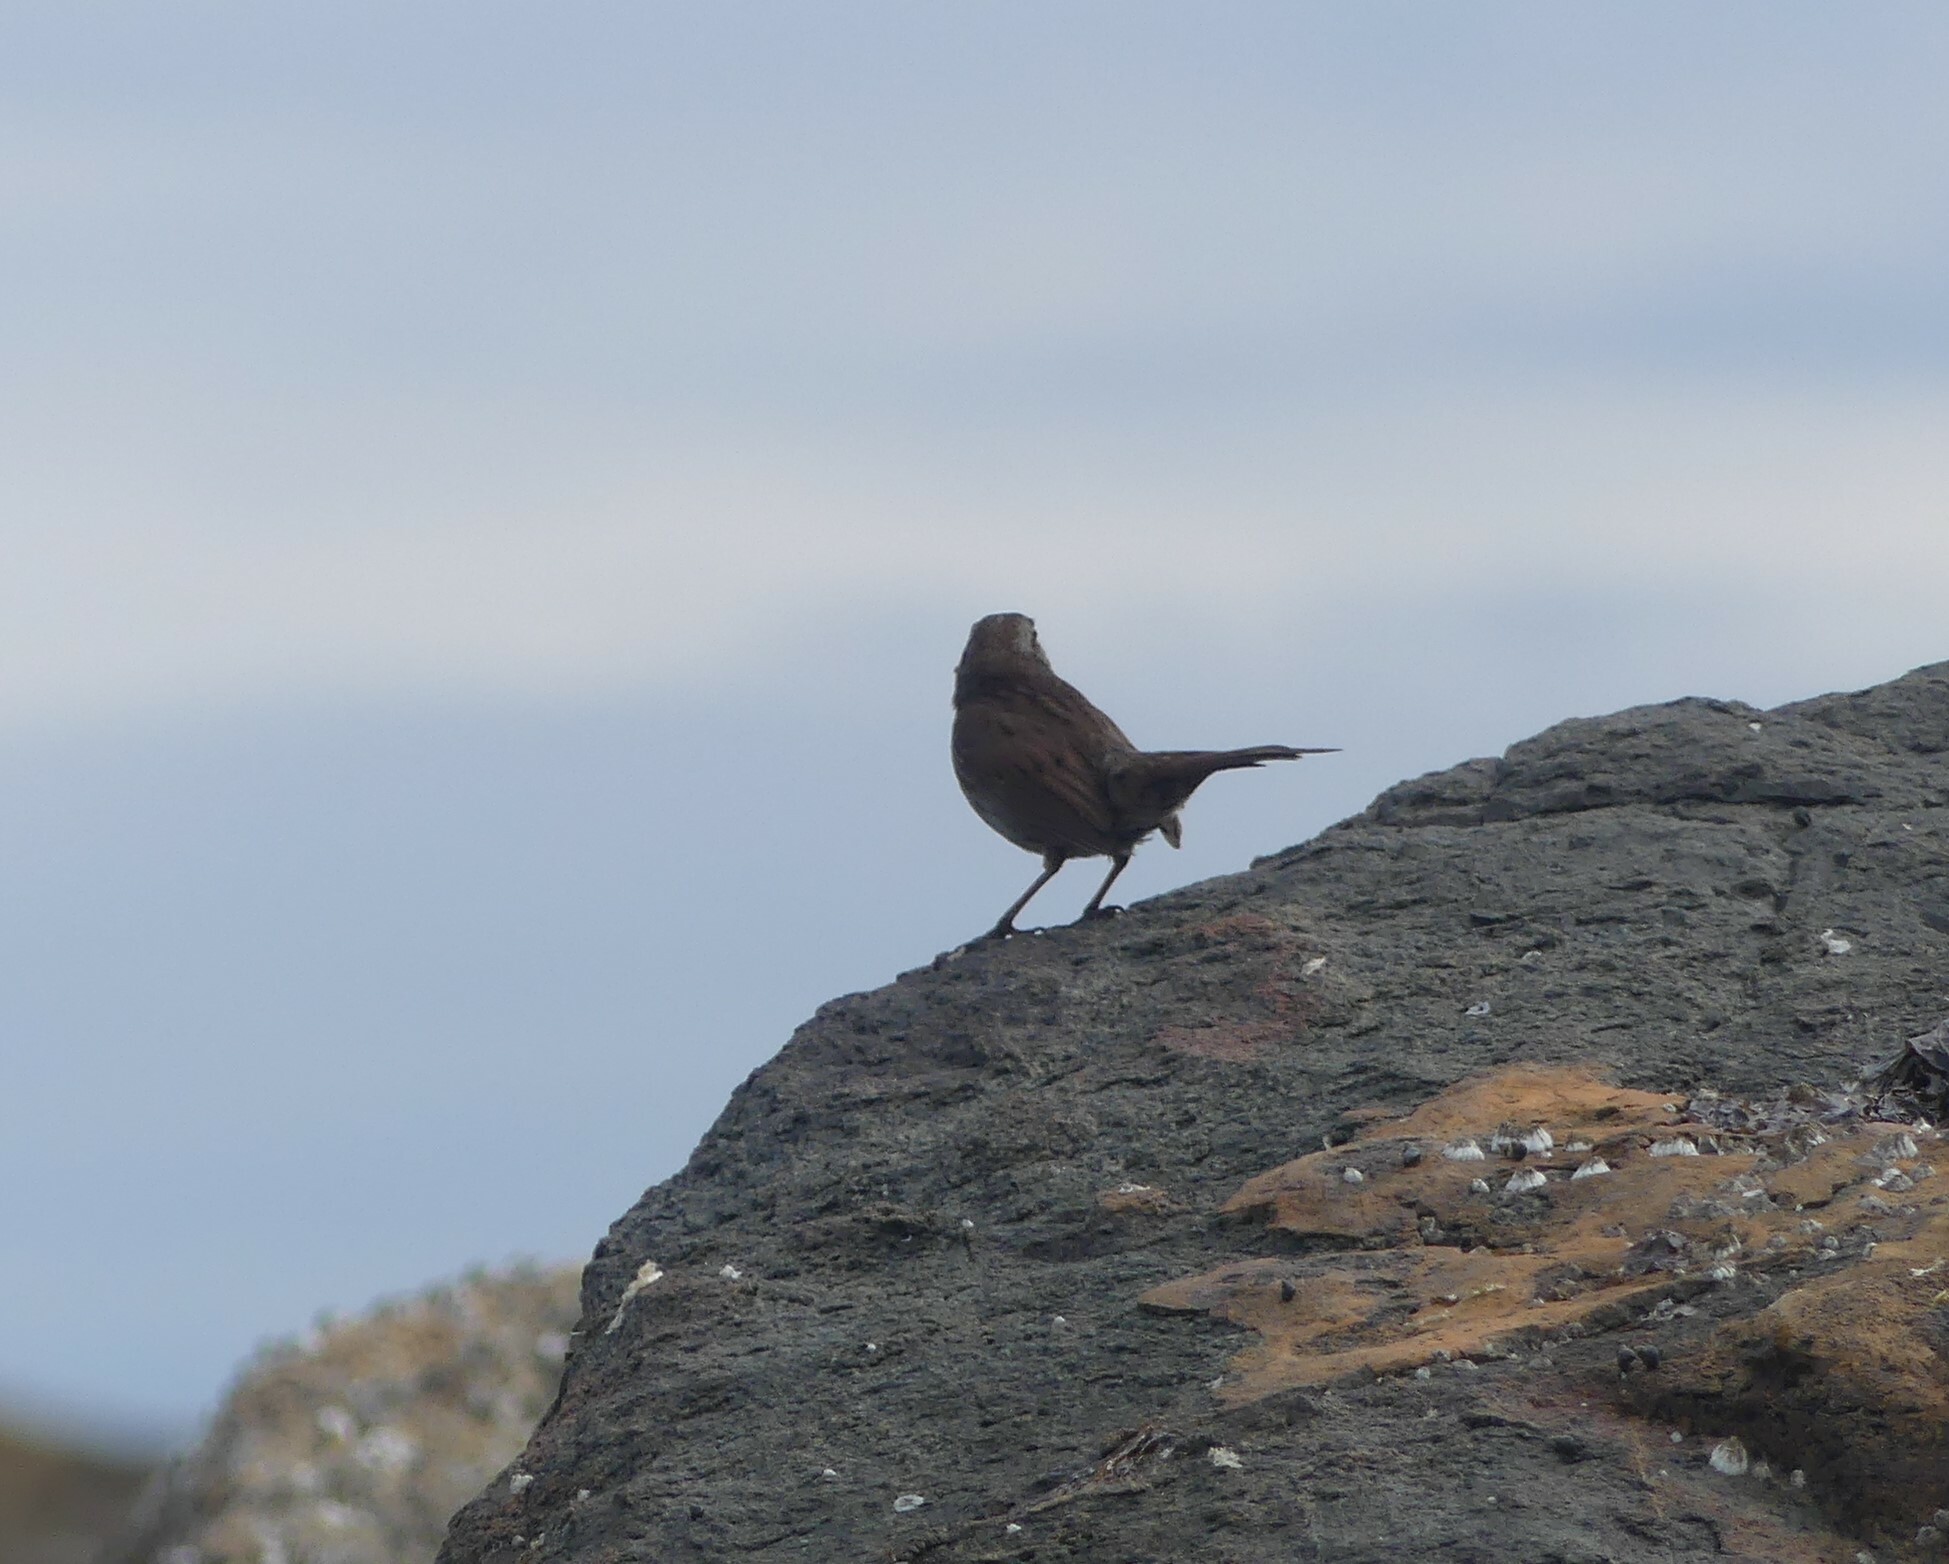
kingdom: Animalia
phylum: Chordata
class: Aves
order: Passeriformes
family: Passerellidae
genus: Melospiza
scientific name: Melospiza melodia
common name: Song sparrow
